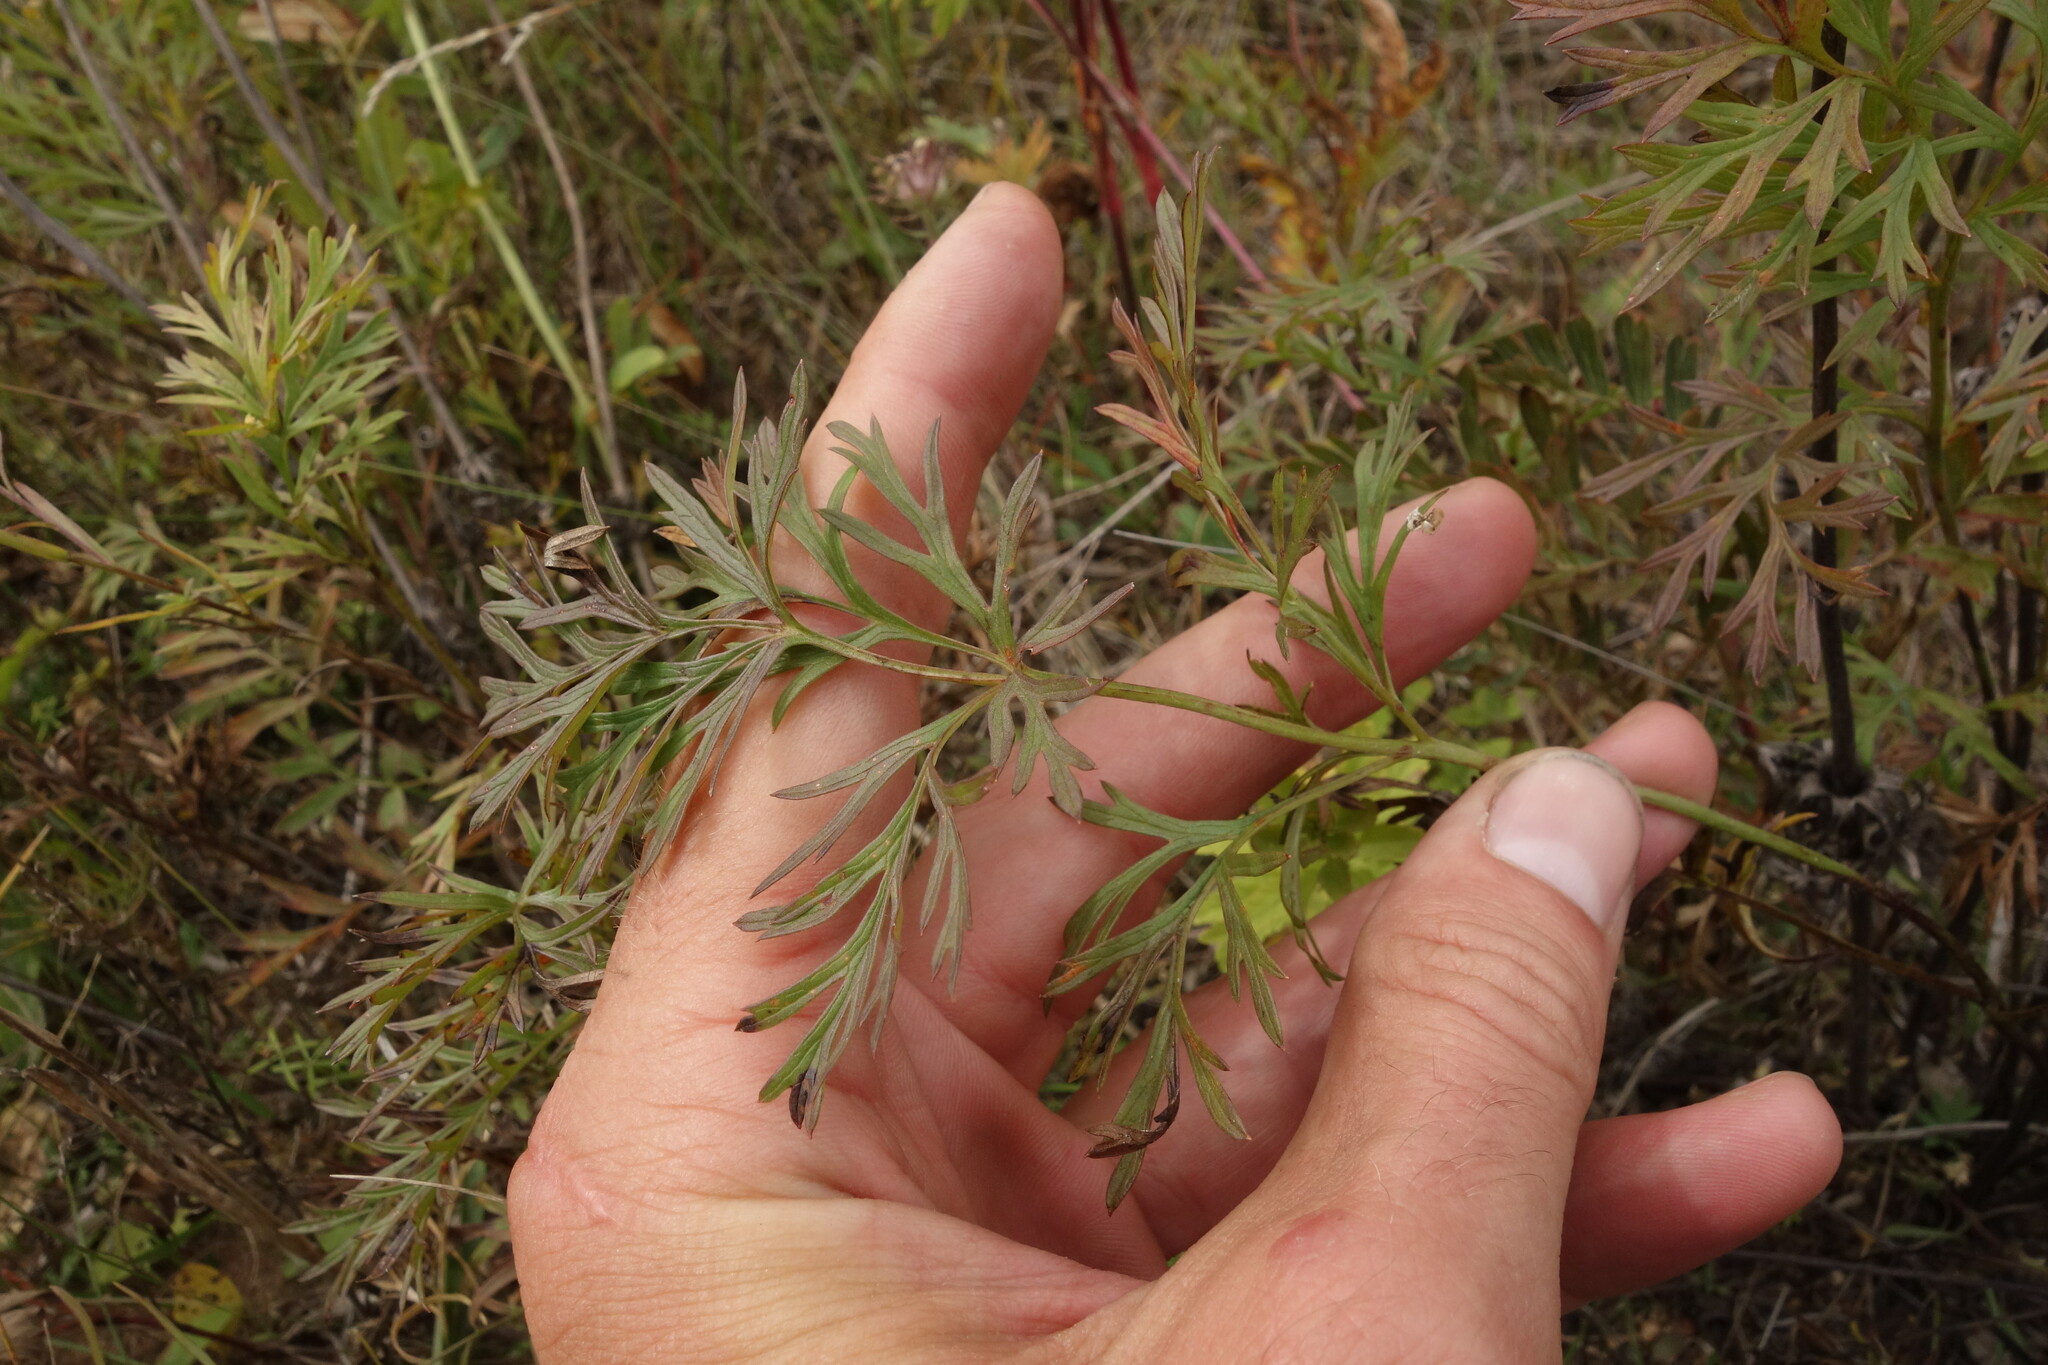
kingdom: Plantae
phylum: Tracheophyta
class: Magnoliopsida
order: Ranunculales
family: Ranunculaceae
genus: Pulsatilla
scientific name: Pulsatilla turczaninovii
